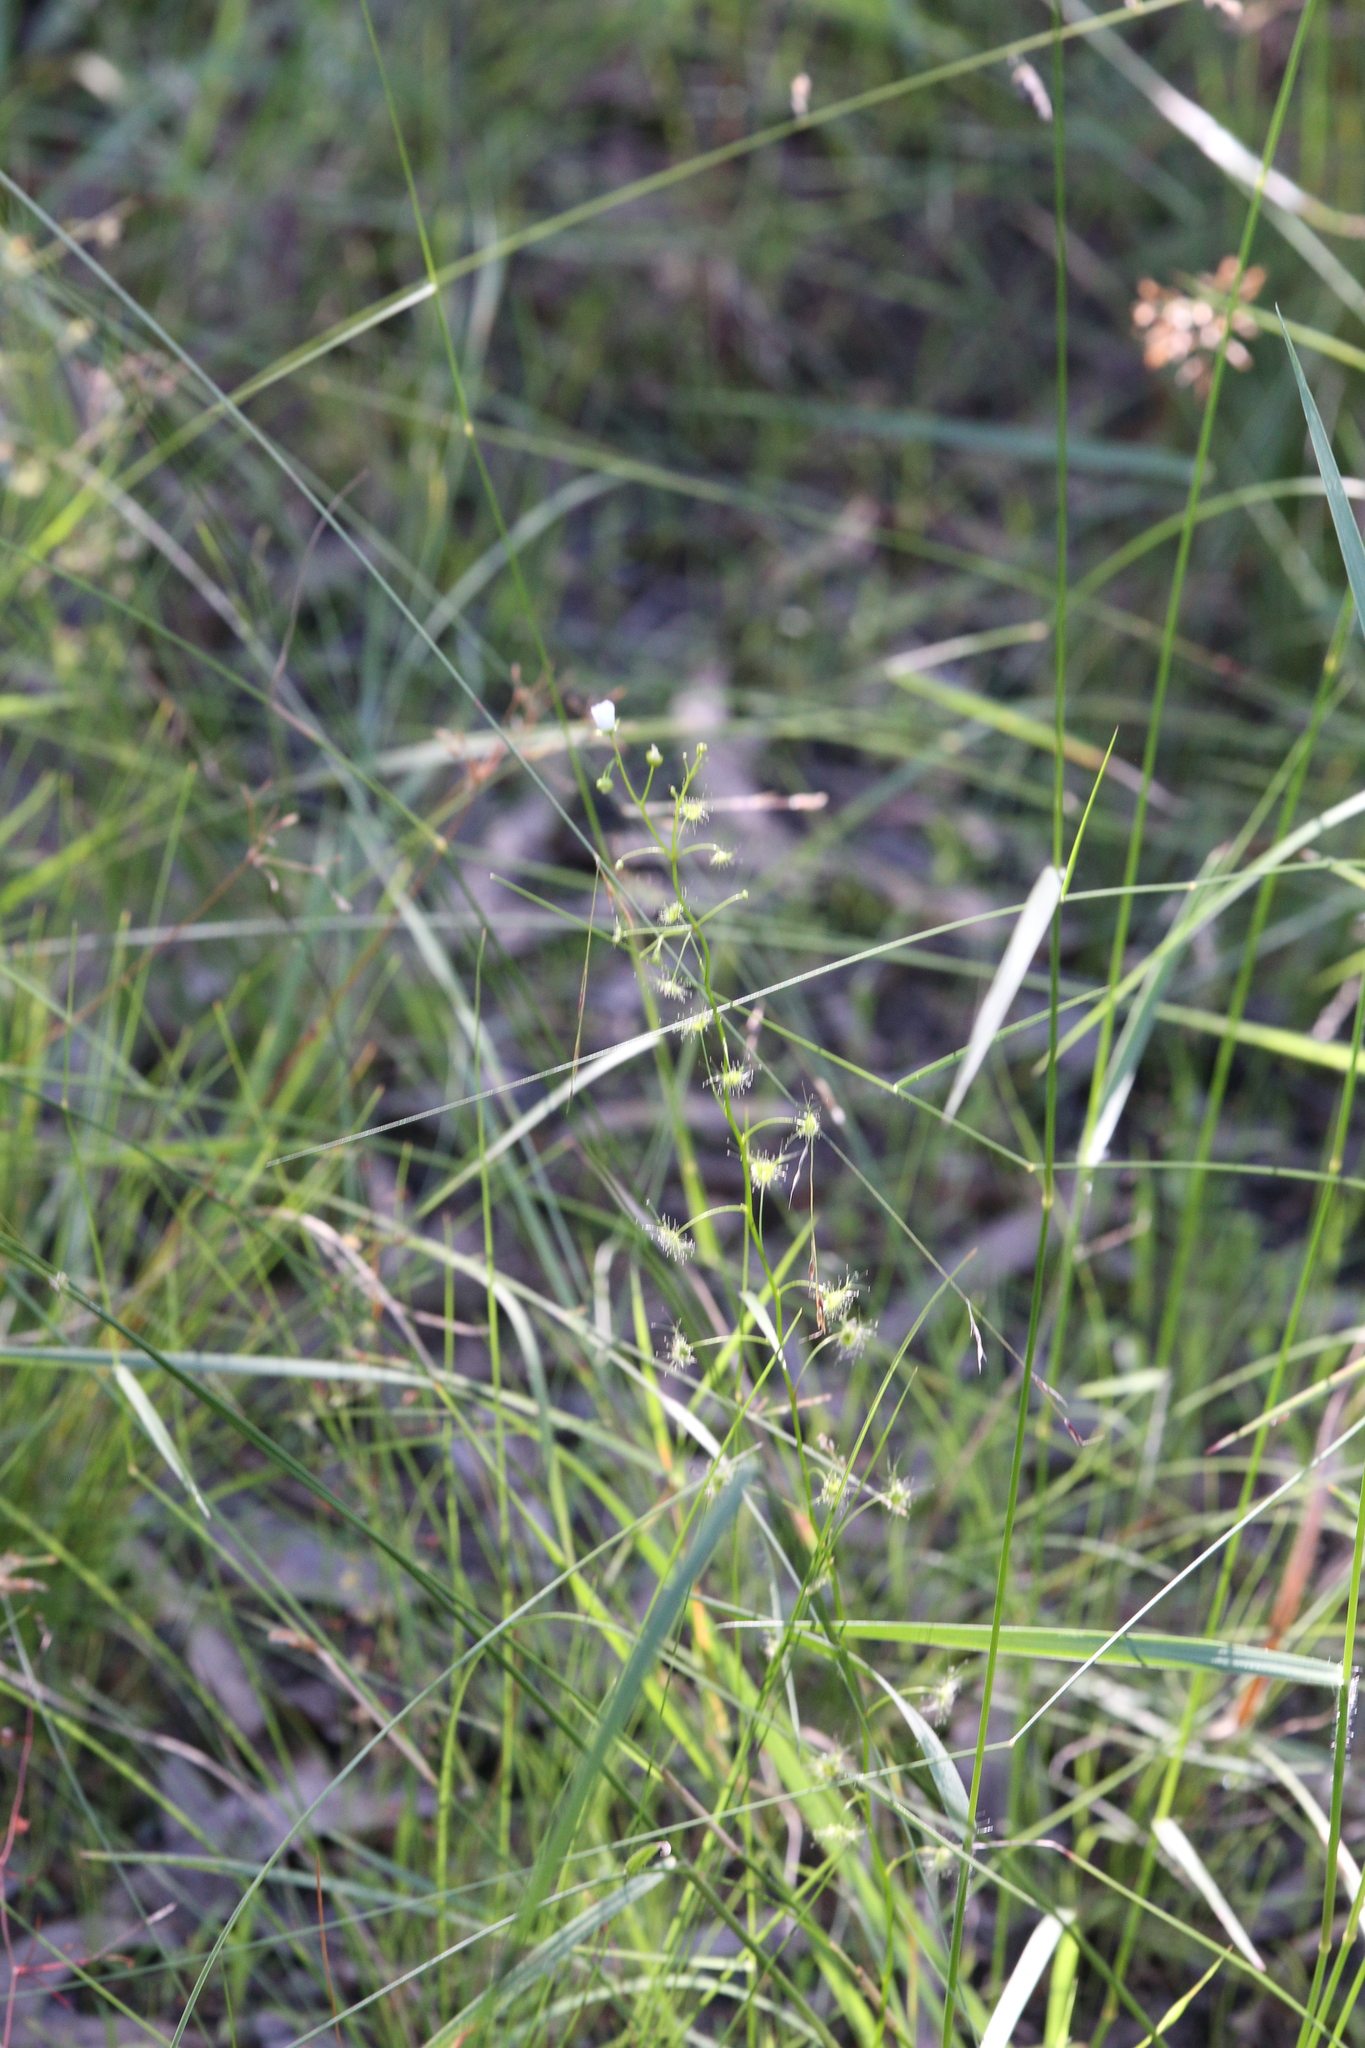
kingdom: Plantae
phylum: Tracheophyta
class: Magnoliopsida
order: Caryophyllales
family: Droseraceae
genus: Drosera
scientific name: Drosera peltata
